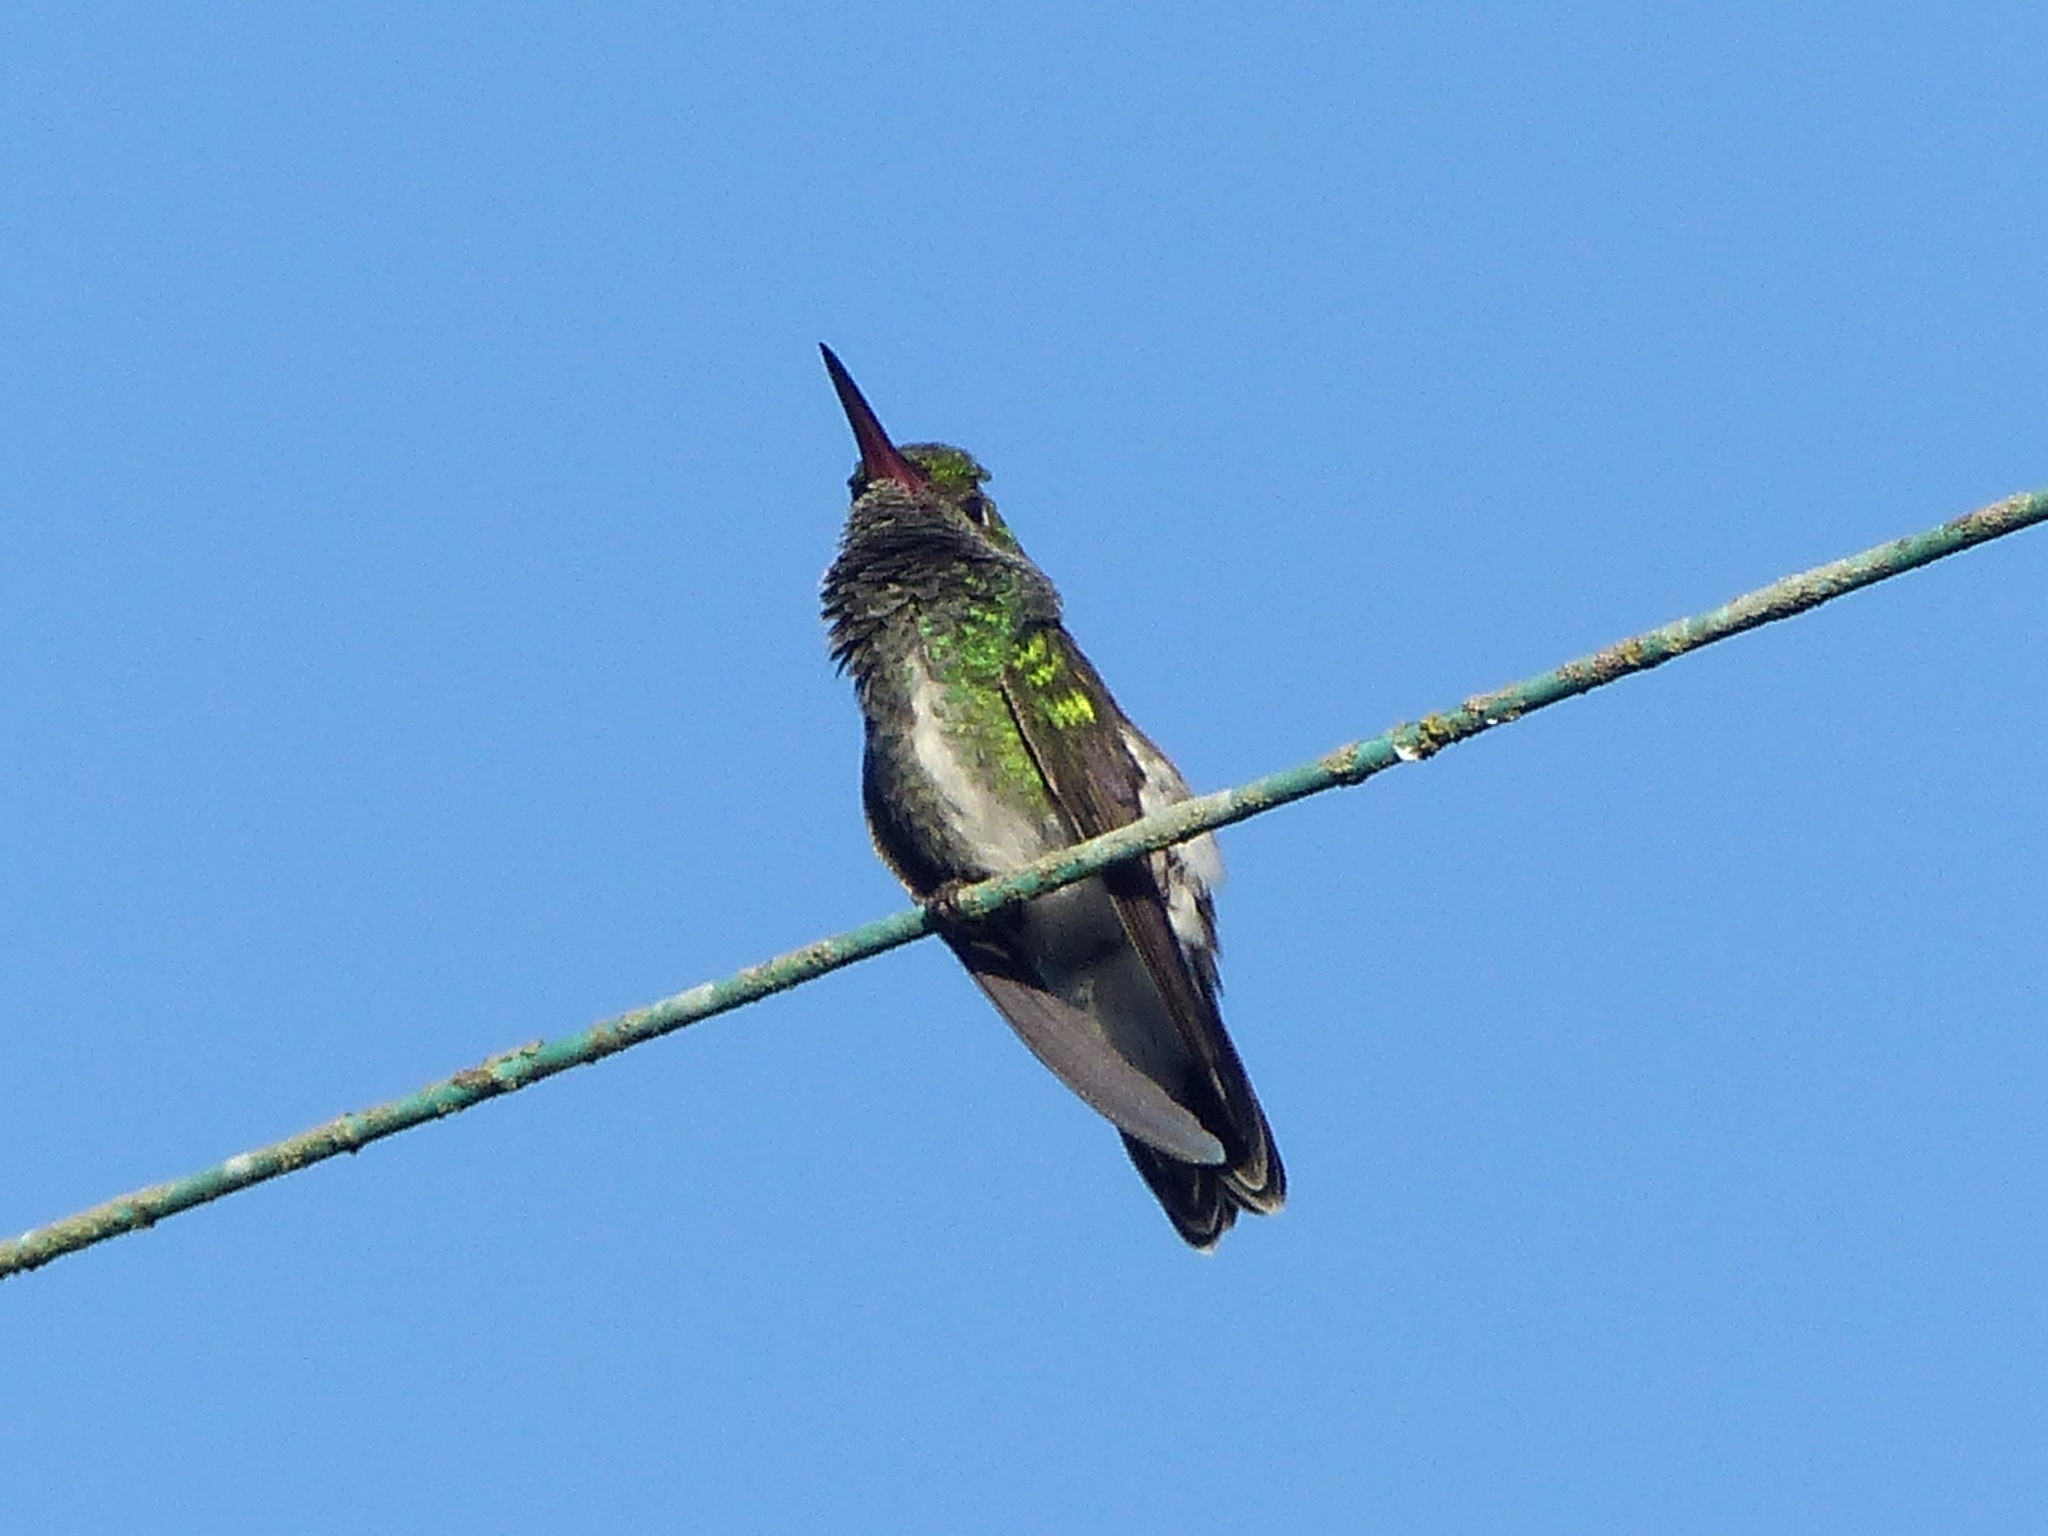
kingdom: Animalia
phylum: Chordata
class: Aves
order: Apodiformes
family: Trochilidae
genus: Chionomesa
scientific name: Chionomesa fimbriata
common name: Glittering-throated emerald
